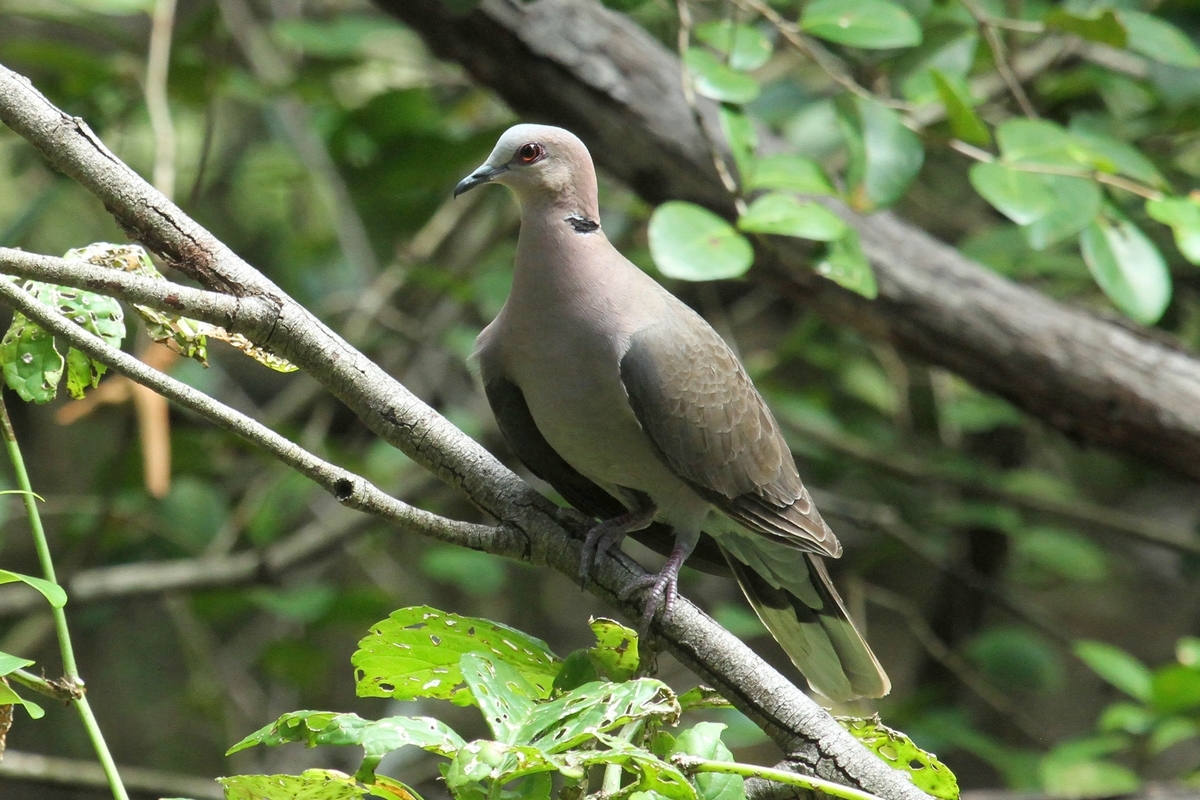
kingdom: Animalia
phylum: Chordata
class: Aves
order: Columbiformes
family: Columbidae
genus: Streptopelia
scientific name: Streptopelia semitorquata
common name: Red-eyed dove
